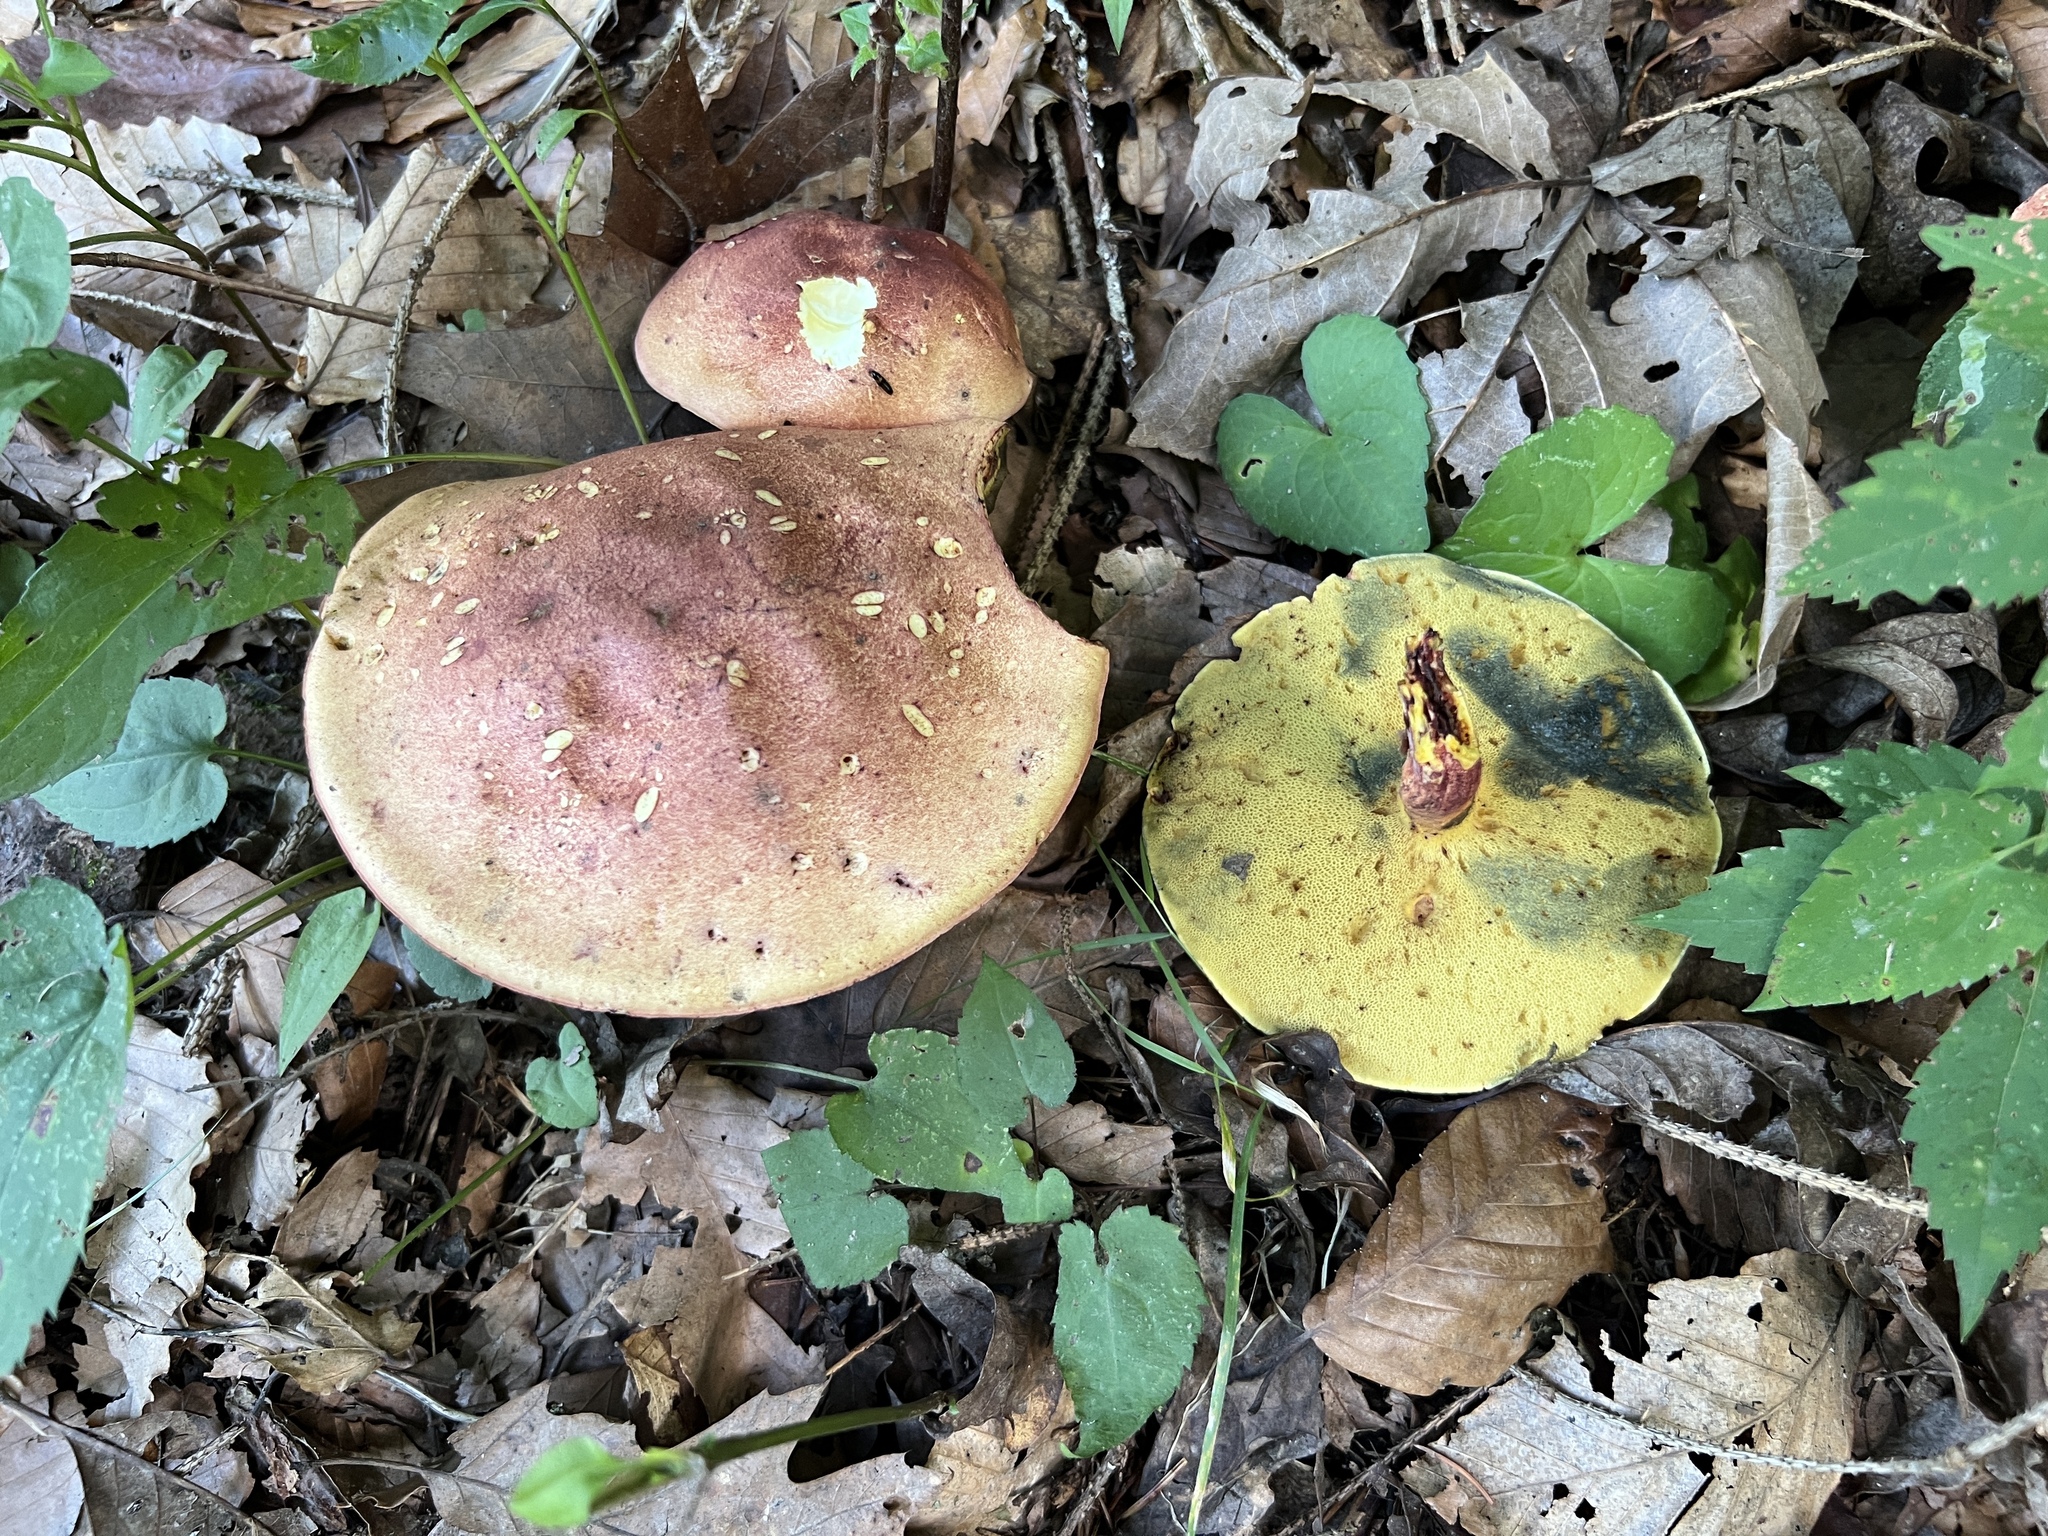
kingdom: Fungi
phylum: Basidiomycota
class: Agaricomycetes
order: Boletales
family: Boletaceae
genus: Baorangia
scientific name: Baorangia bicolor
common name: Two-colored bolete
